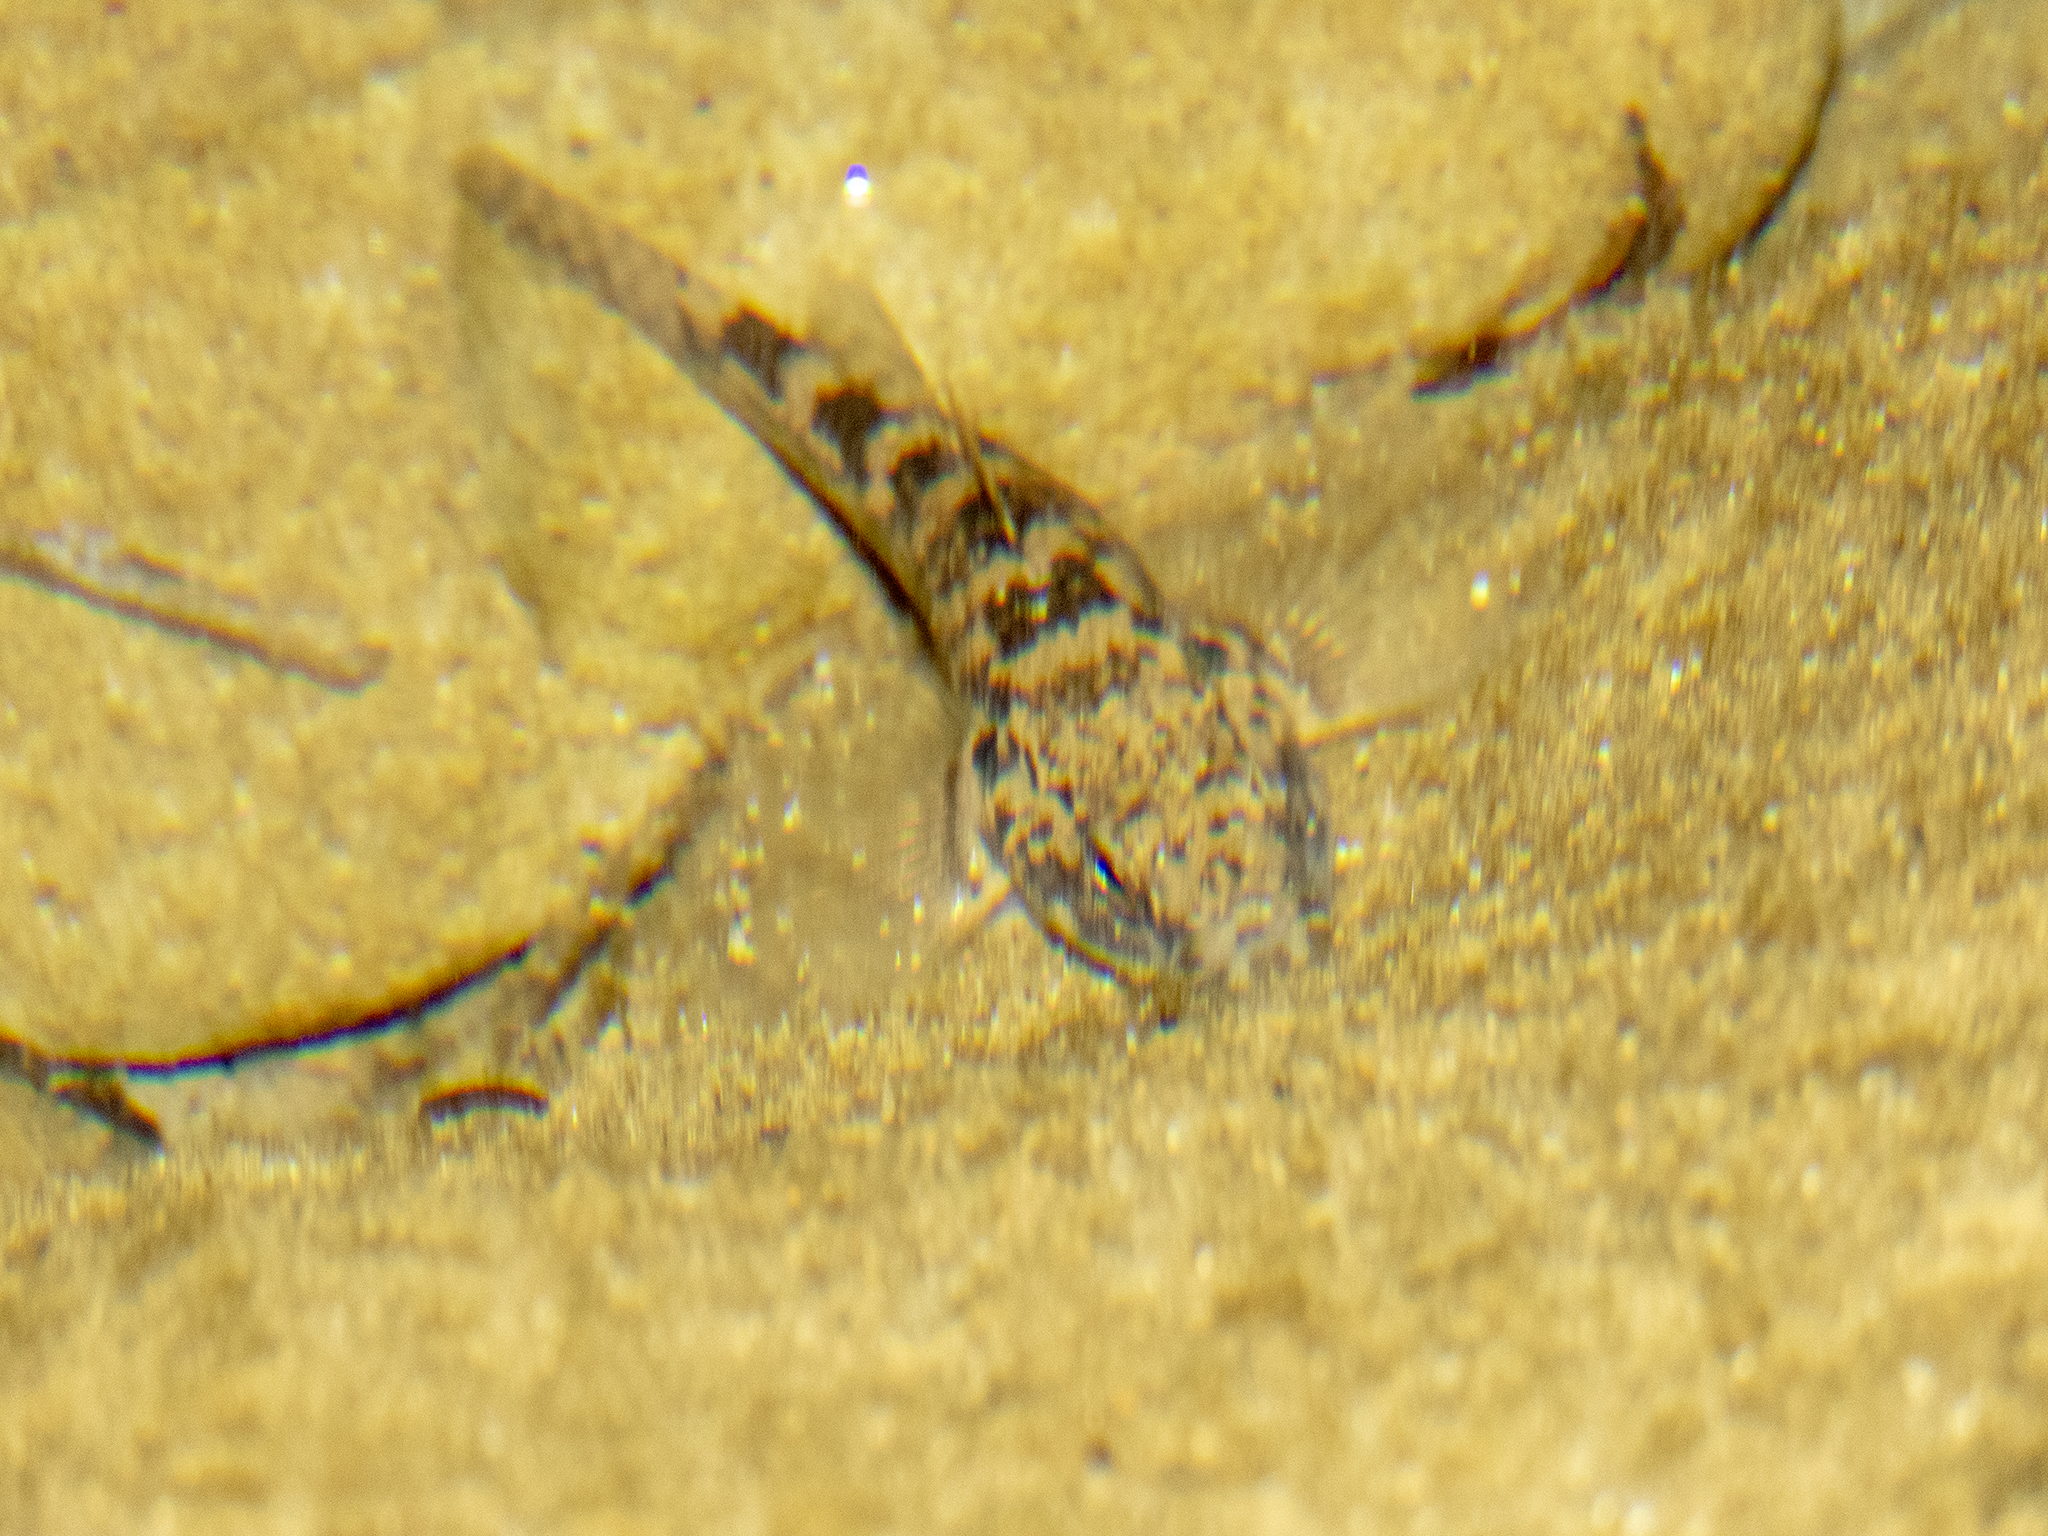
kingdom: Animalia
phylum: Chordata
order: Perciformes
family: Eleotridae
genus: Gobiomorphus
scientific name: Gobiomorphus cotidianus
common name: Common bully
